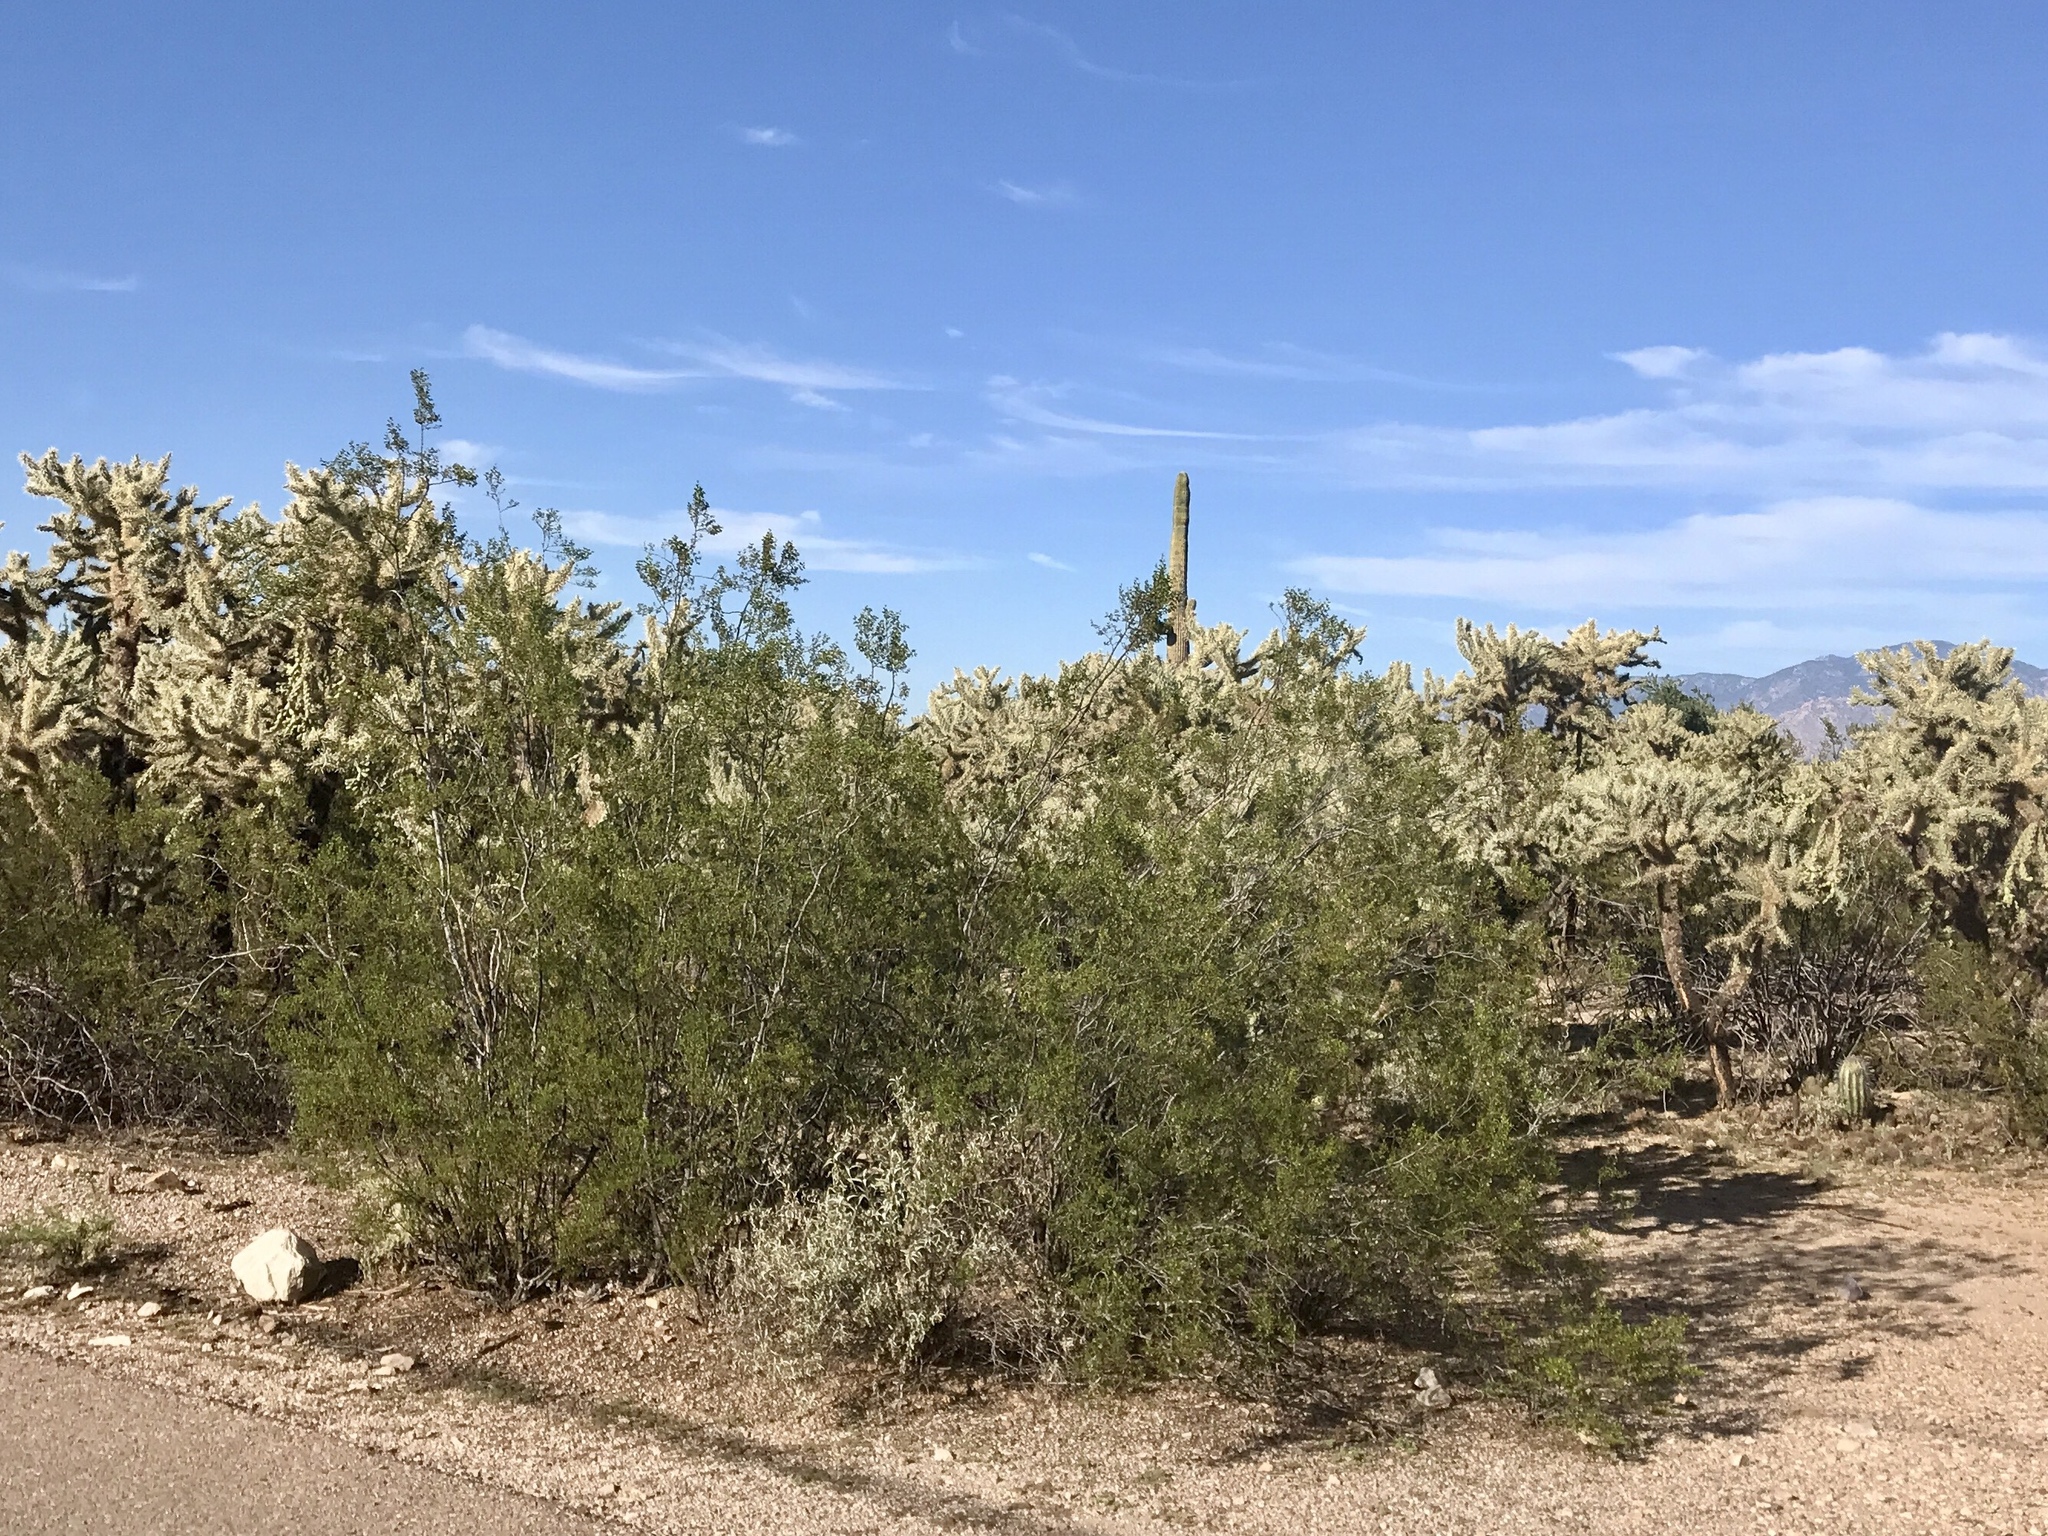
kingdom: Plantae
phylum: Tracheophyta
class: Magnoliopsida
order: Zygophyllales
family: Zygophyllaceae
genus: Larrea
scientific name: Larrea tridentata
